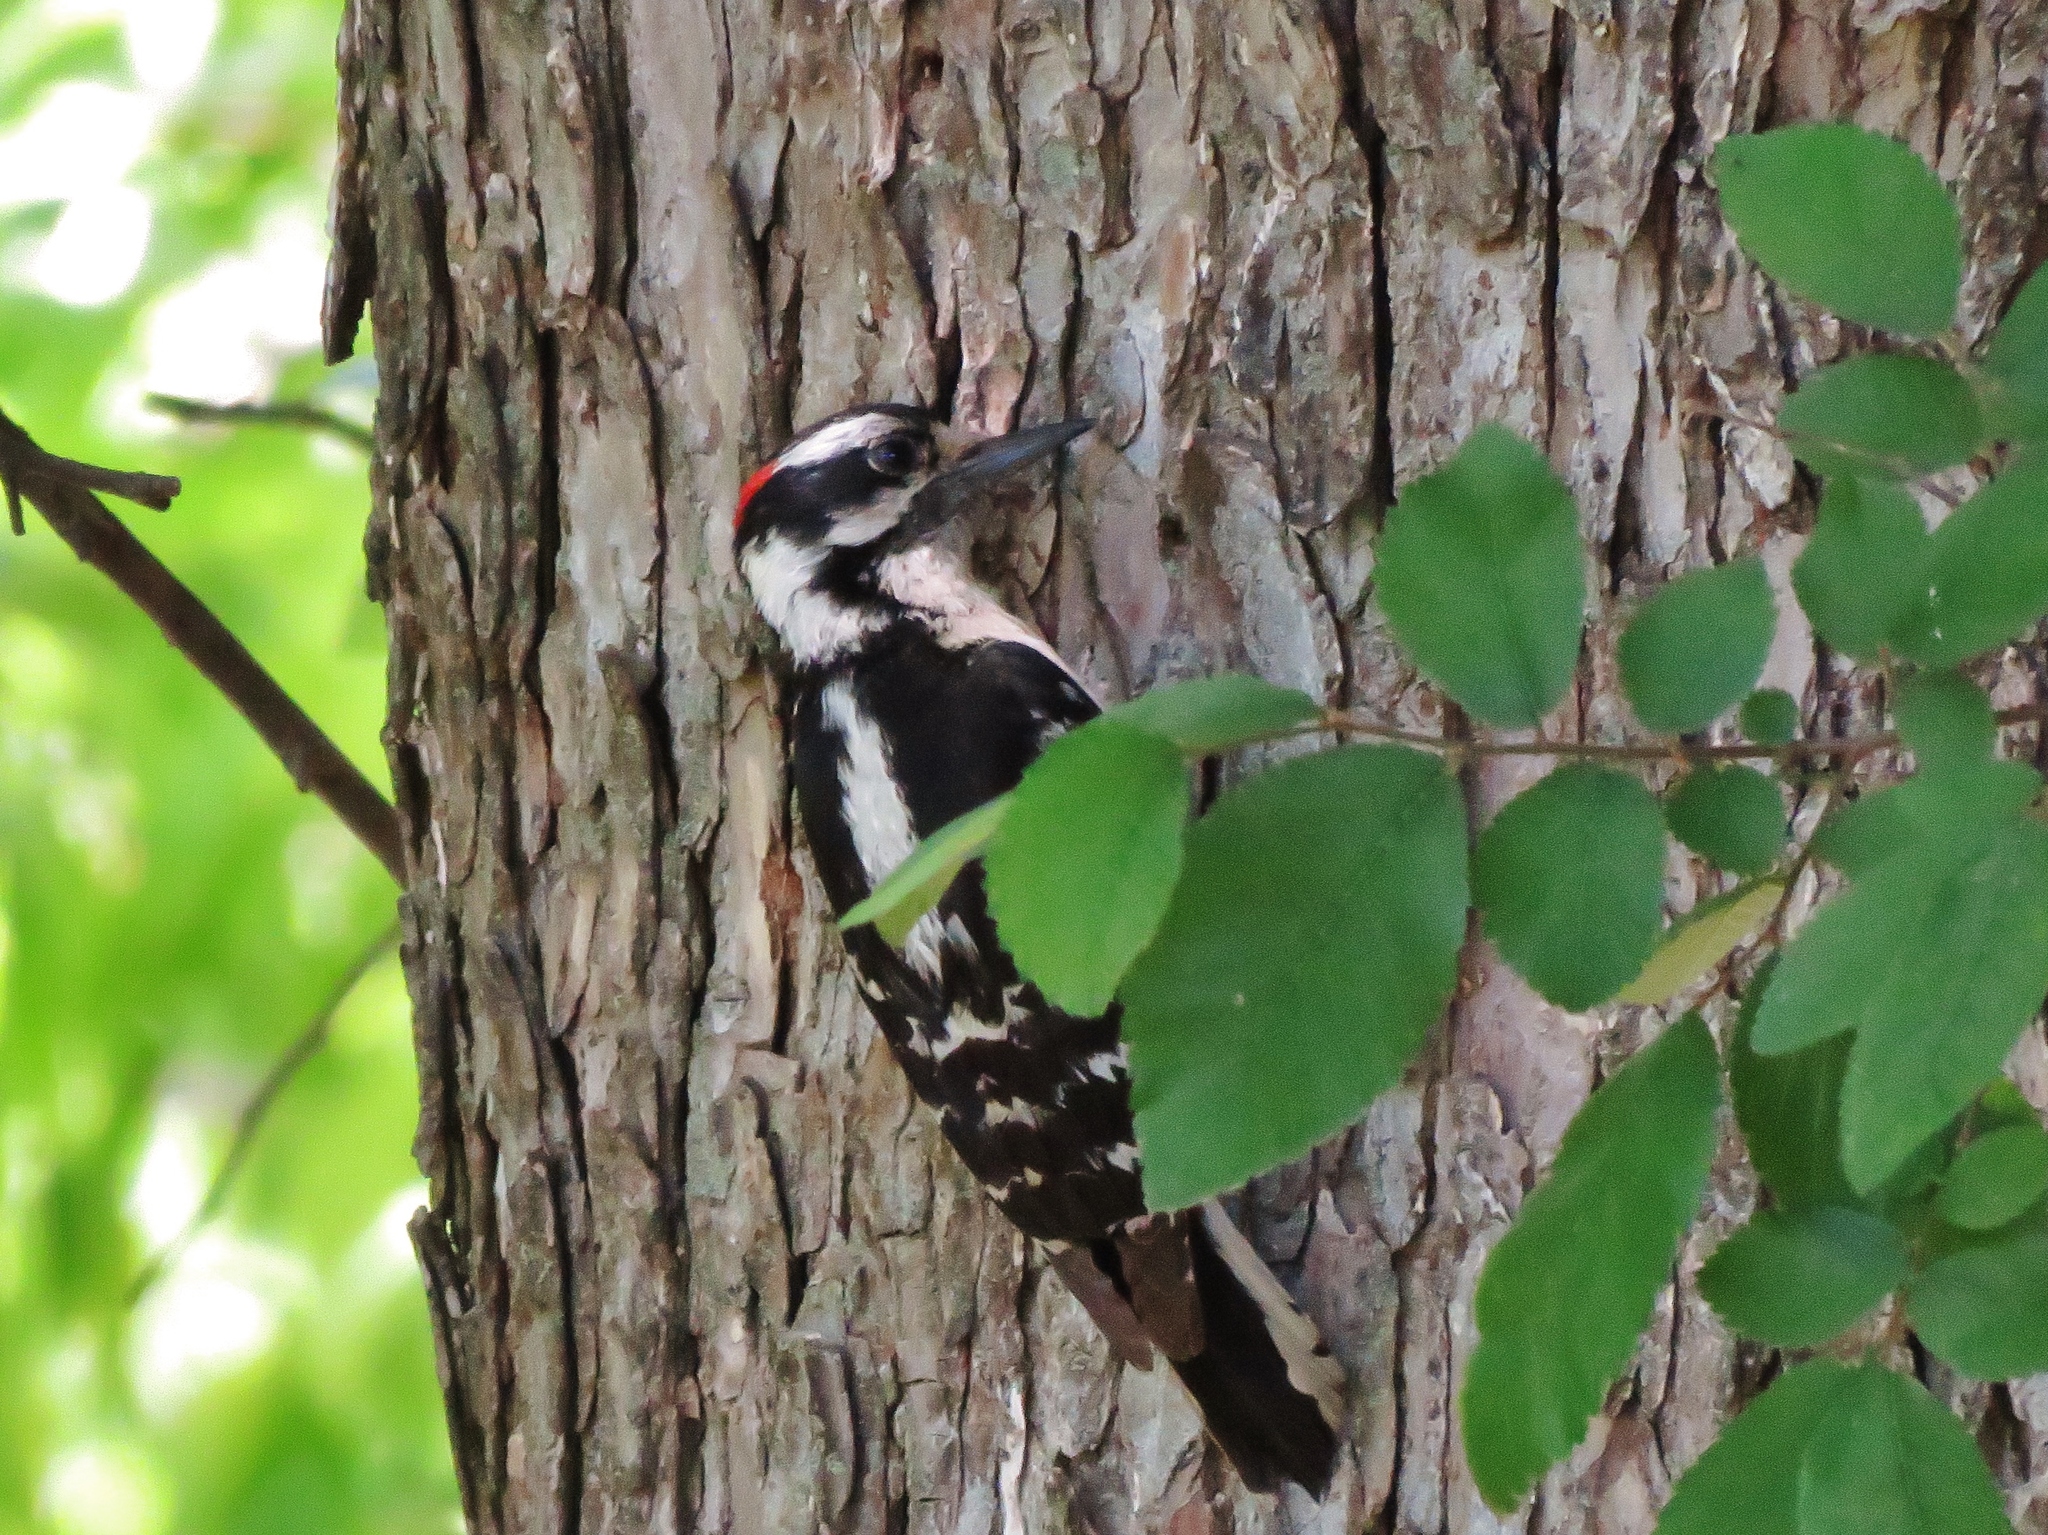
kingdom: Animalia
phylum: Chordata
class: Aves
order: Piciformes
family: Picidae
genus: Dryobates
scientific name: Dryobates pubescens
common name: Downy woodpecker
